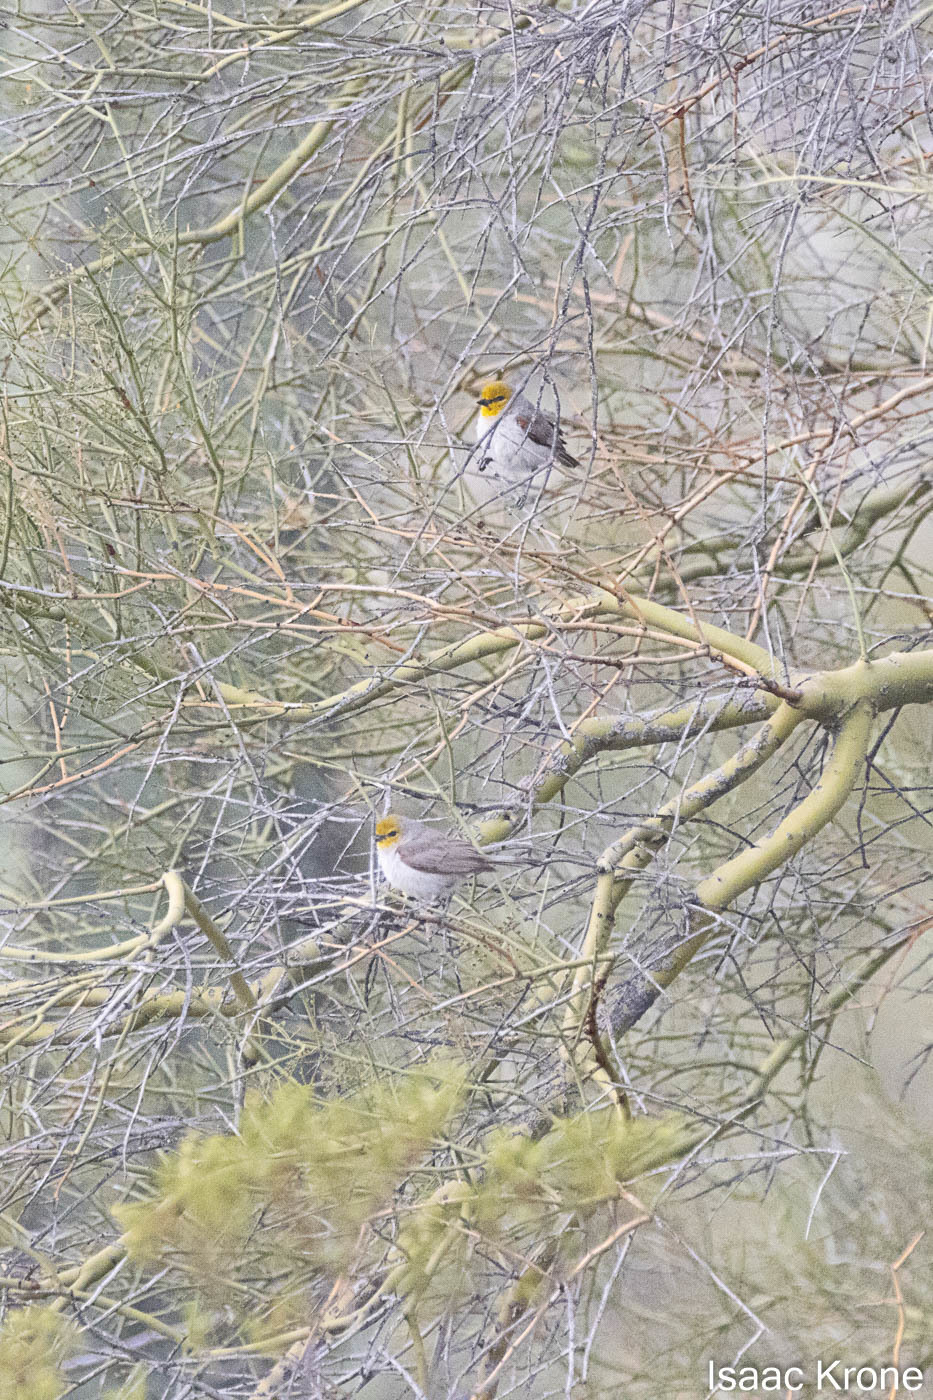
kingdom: Animalia
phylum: Chordata
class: Aves
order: Passeriformes
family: Remizidae
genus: Auriparus
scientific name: Auriparus flaviceps
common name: Verdin
